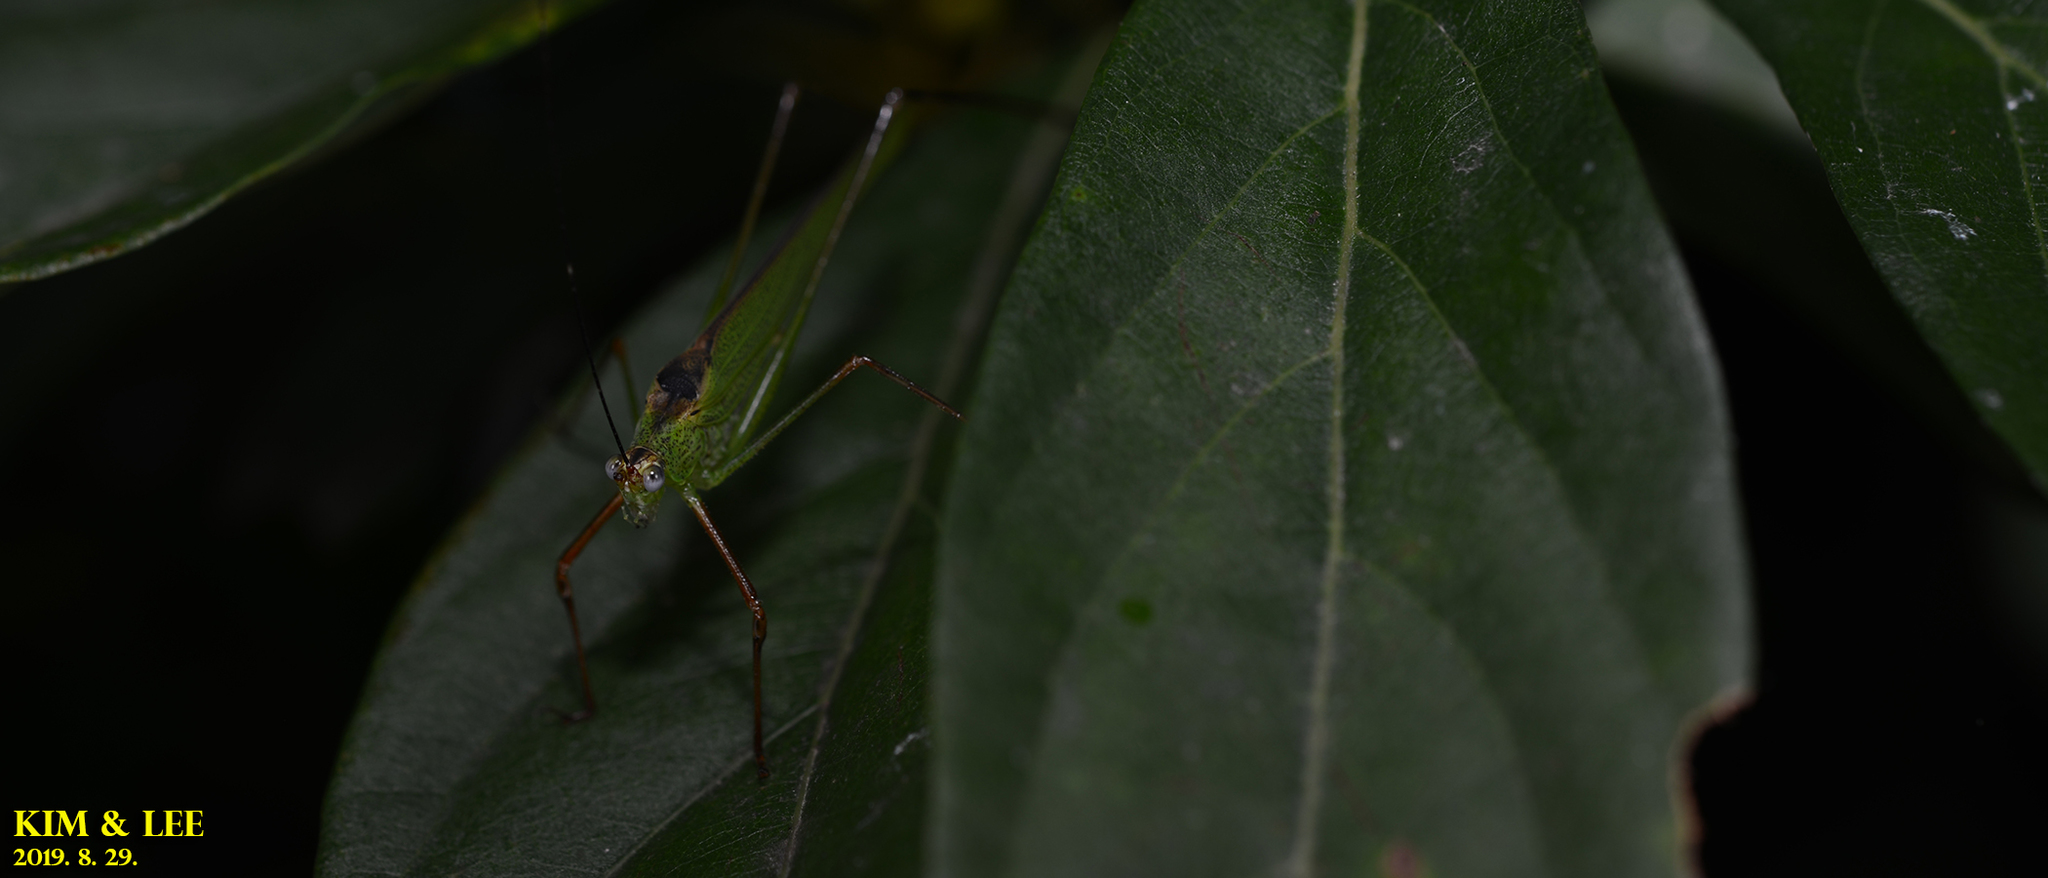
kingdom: Animalia
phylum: Arthropoda
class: Insecta
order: Orthoptera
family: Tettigoniidae
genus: Phaneroptera
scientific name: Phaneroptera nigroantennata
